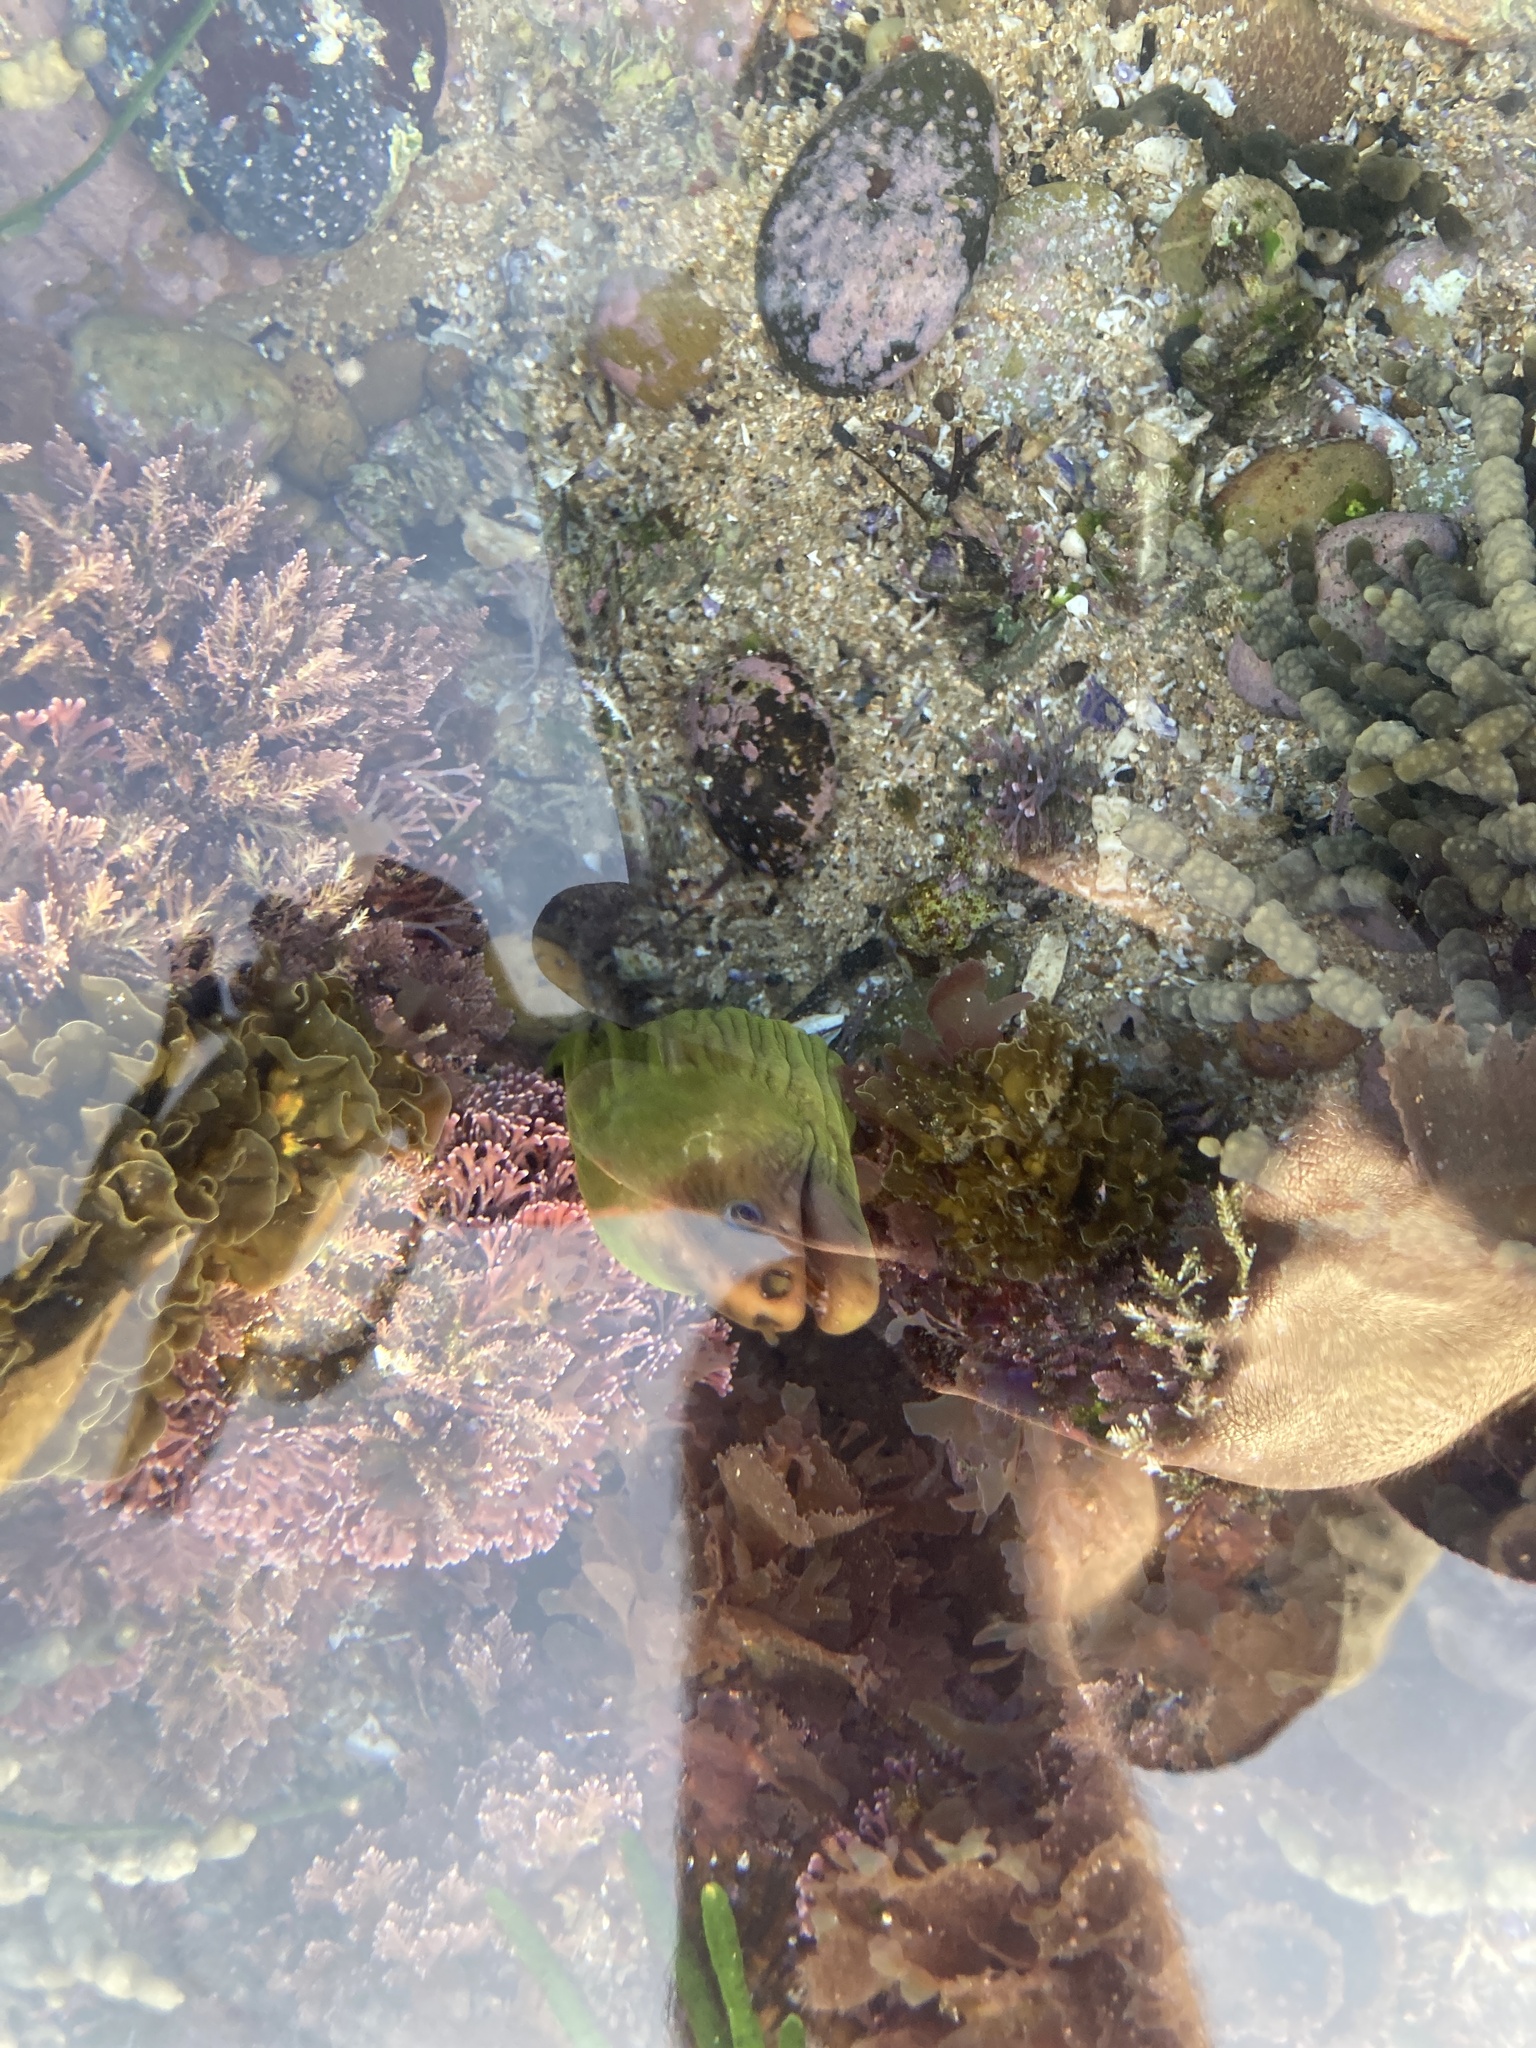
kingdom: Animalia
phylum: Chordata
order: Anguilliformes
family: Muraenidae
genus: Gymnothorax
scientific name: Gymnothorax prasinus
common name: Yellow moray
